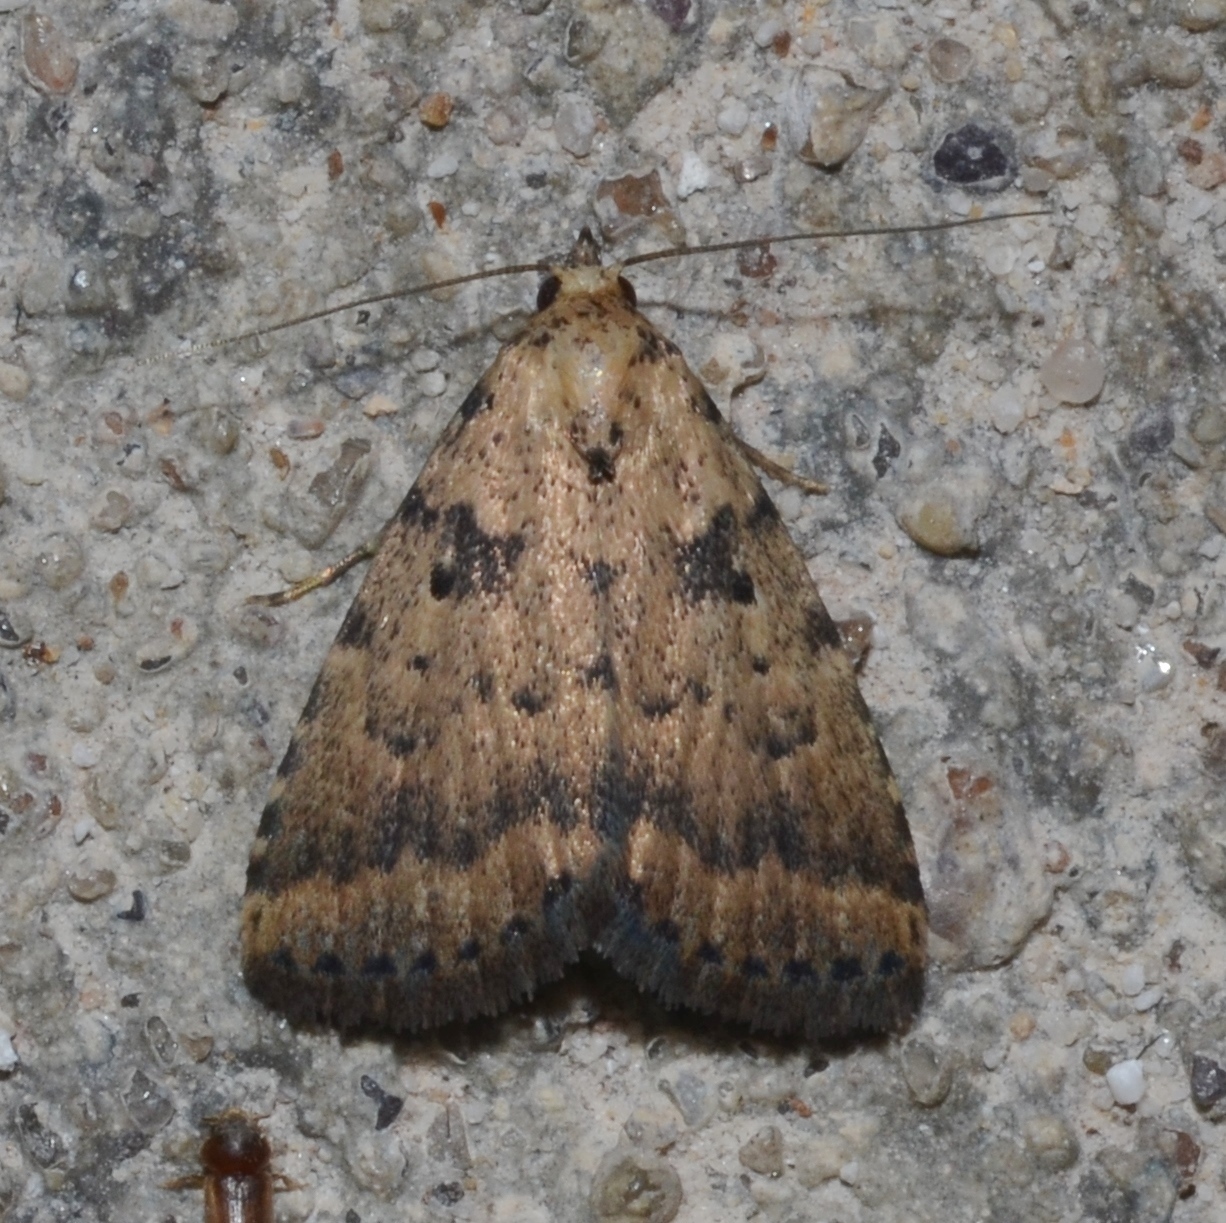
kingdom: Animalia
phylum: Arthropoda
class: Insecta
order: Lepidoptera
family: Erebidae
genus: Arugisa
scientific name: Arugisa lutea
